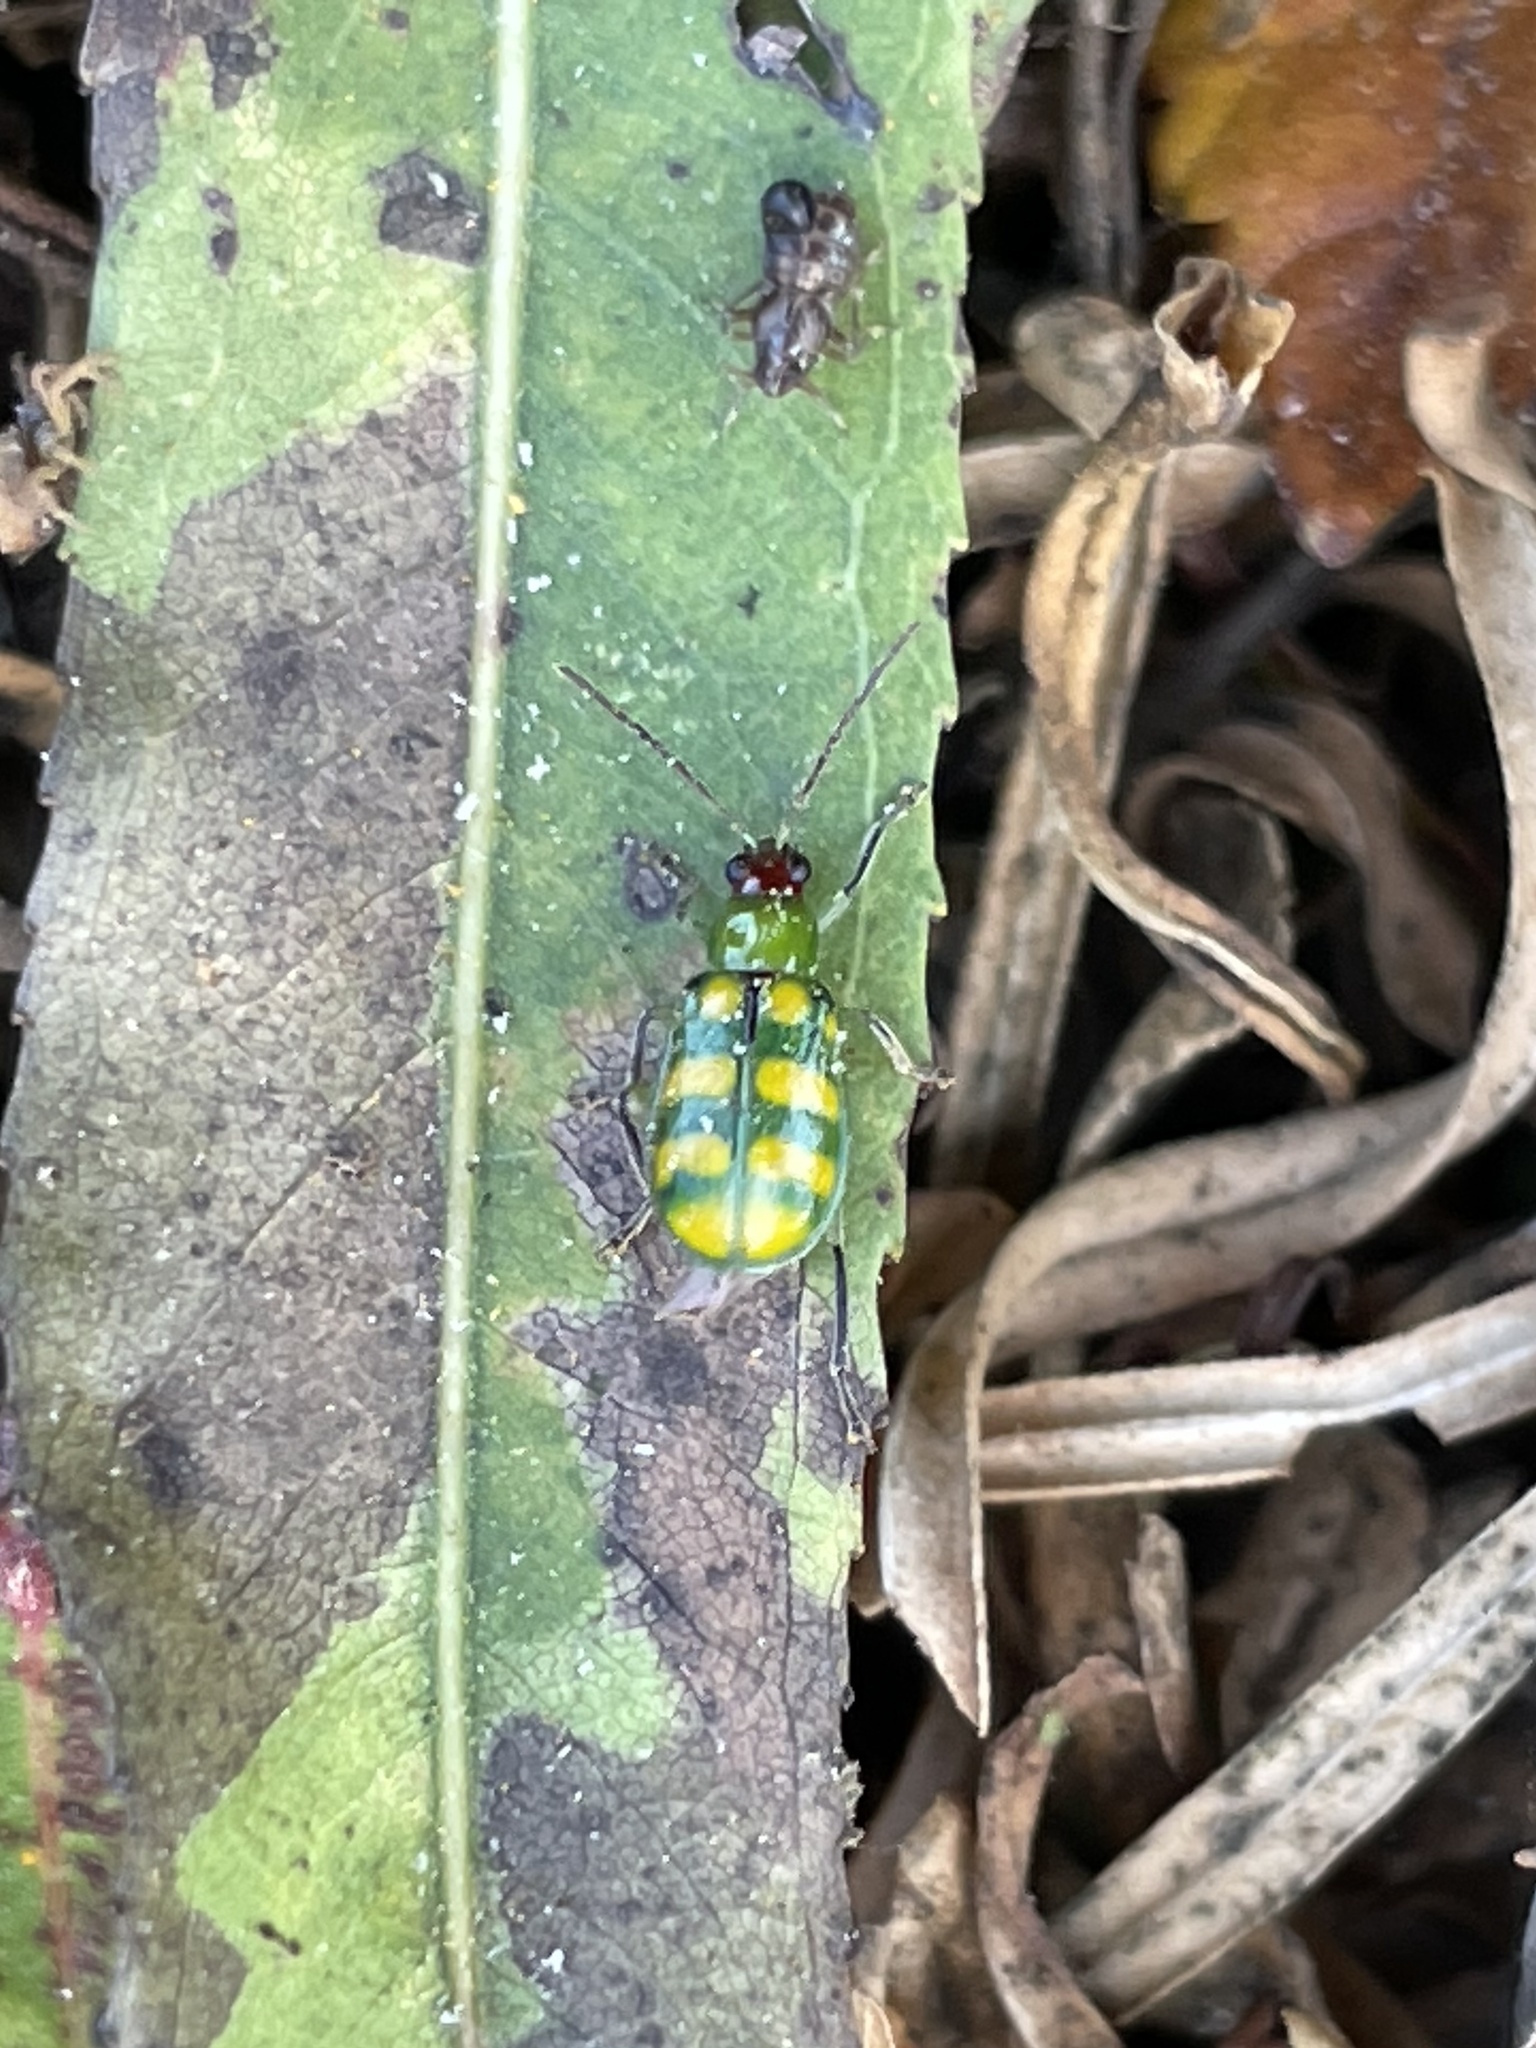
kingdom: Animalia
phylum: Arthropoda
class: Insecta
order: Coleoptera
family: Chrysomelidae
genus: Diabrotica
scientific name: Diabrotica balteata
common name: Leaf beetle
